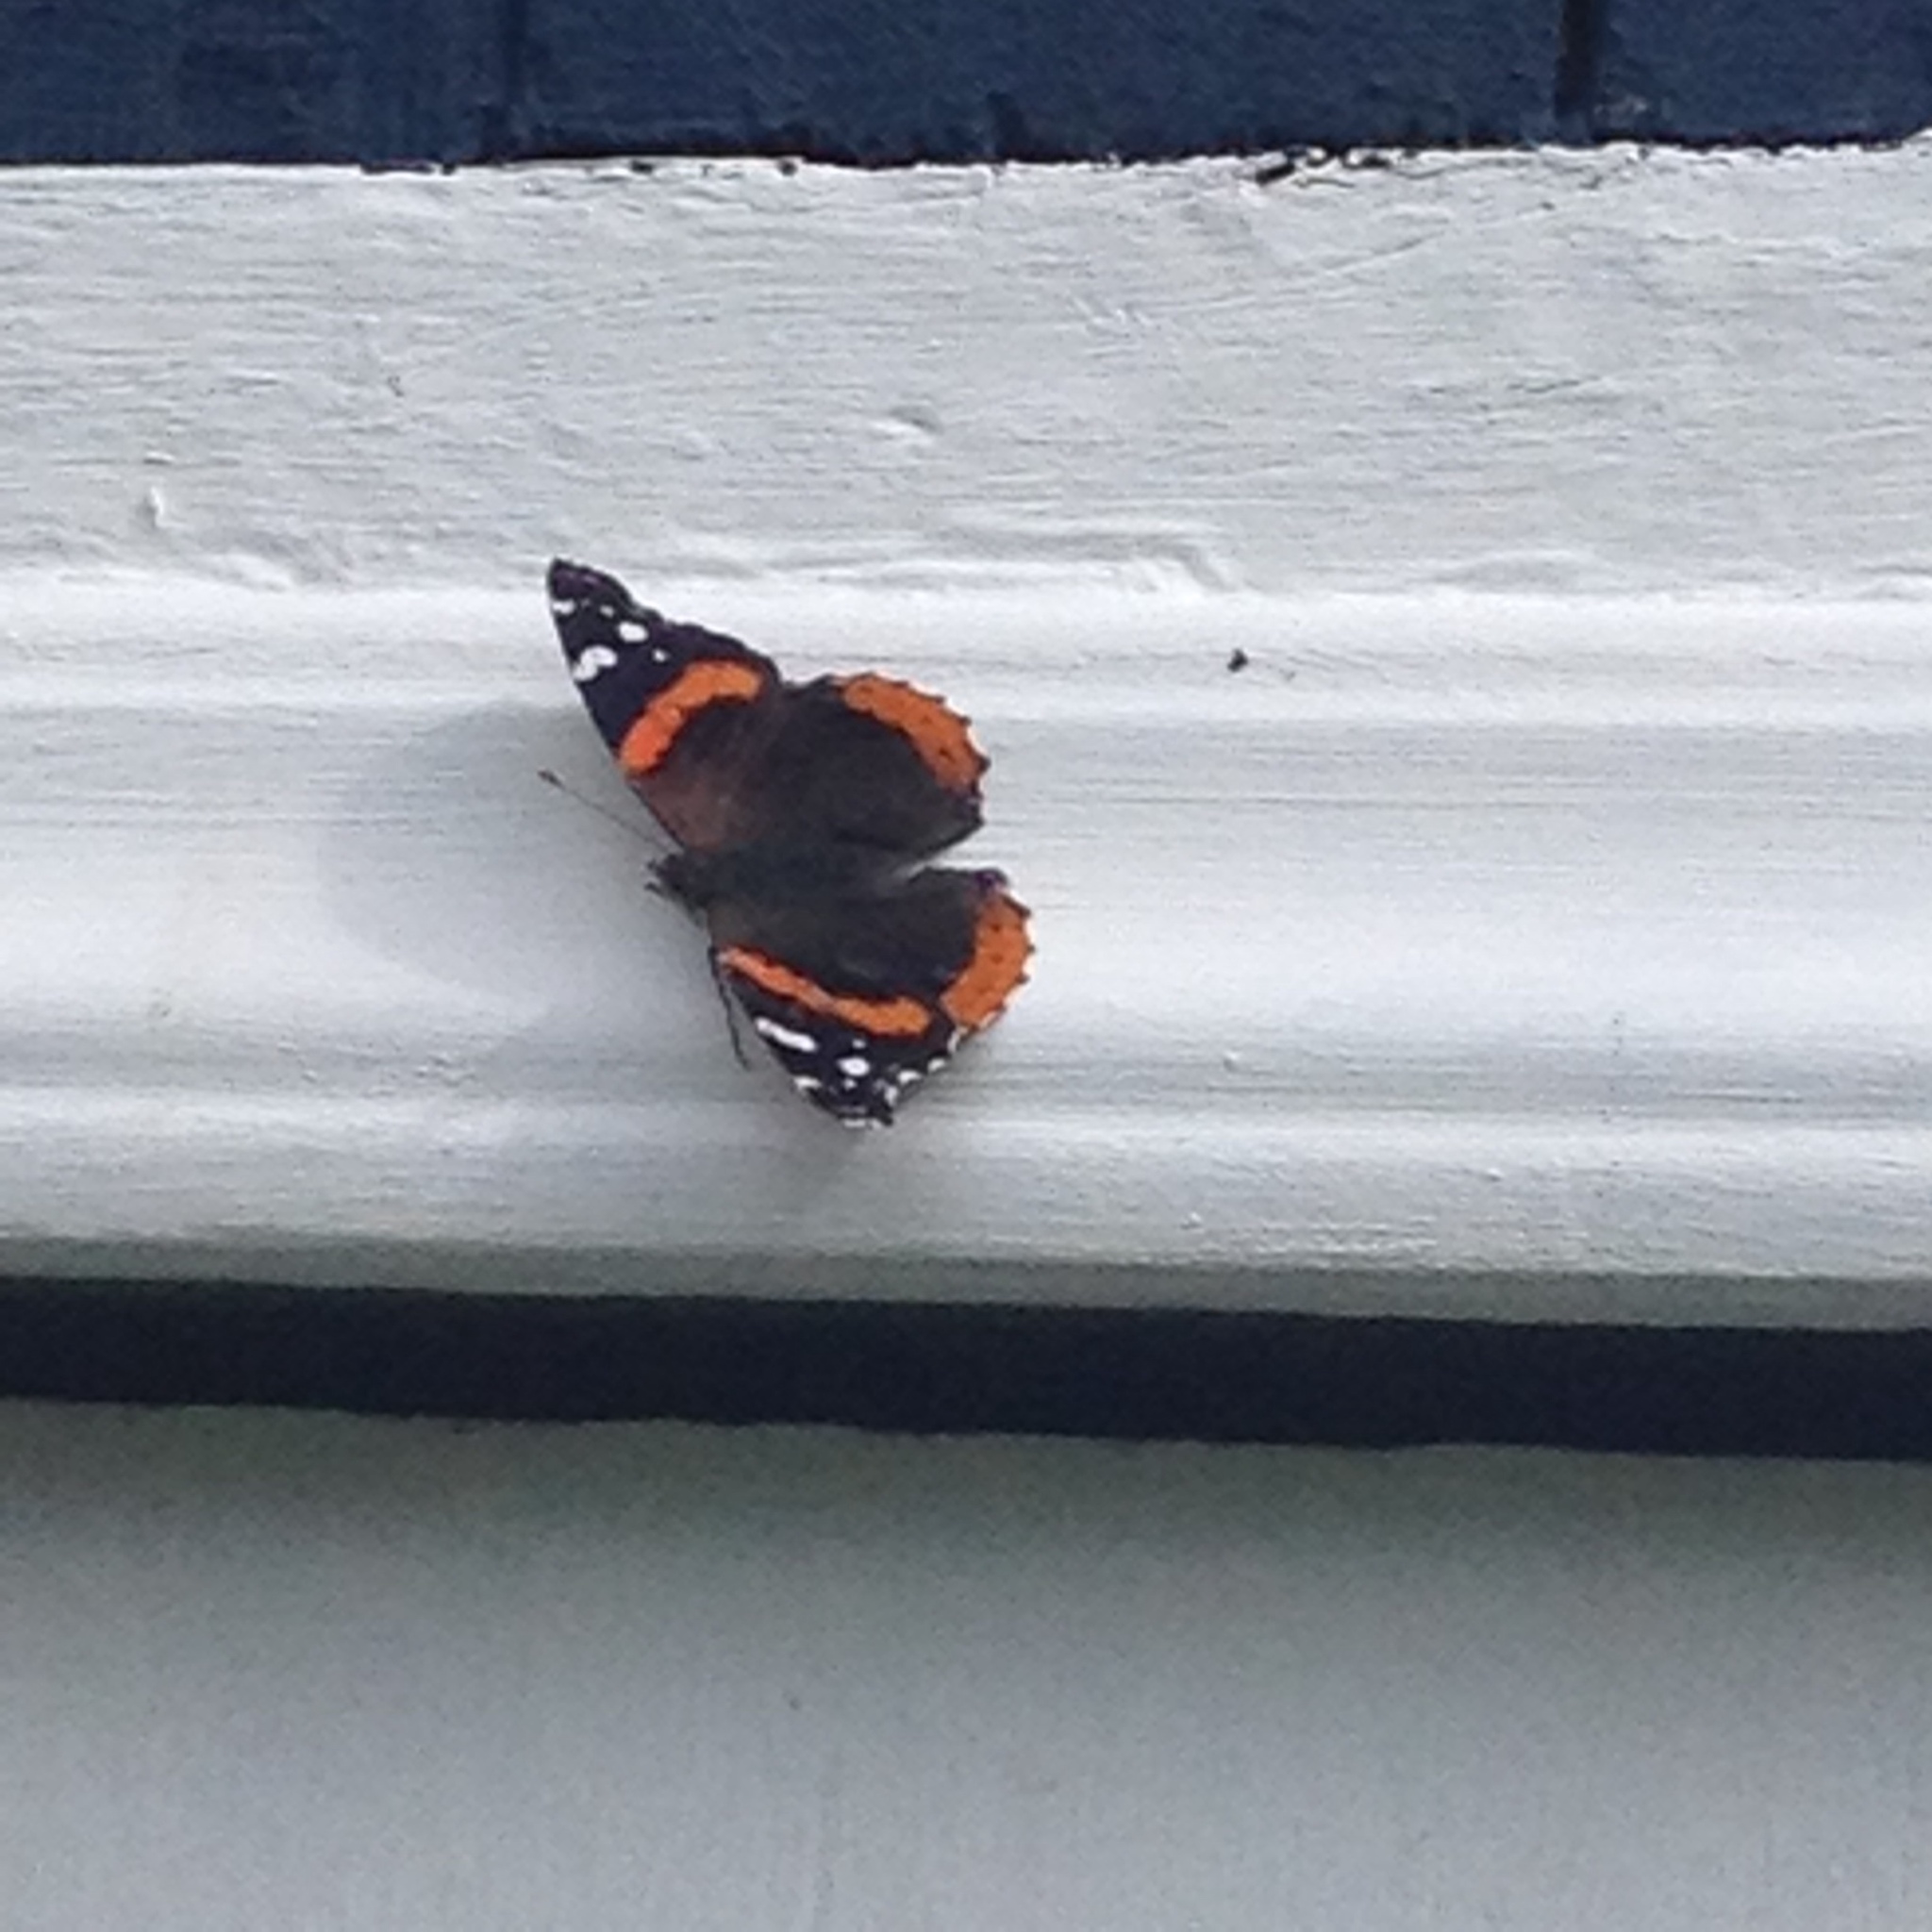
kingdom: Animalia
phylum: Arthropoda
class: Insecta
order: Lepidoptera
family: Nymphalidae
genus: Vanessa
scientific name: Vanessa atalanta
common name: Red admiral
